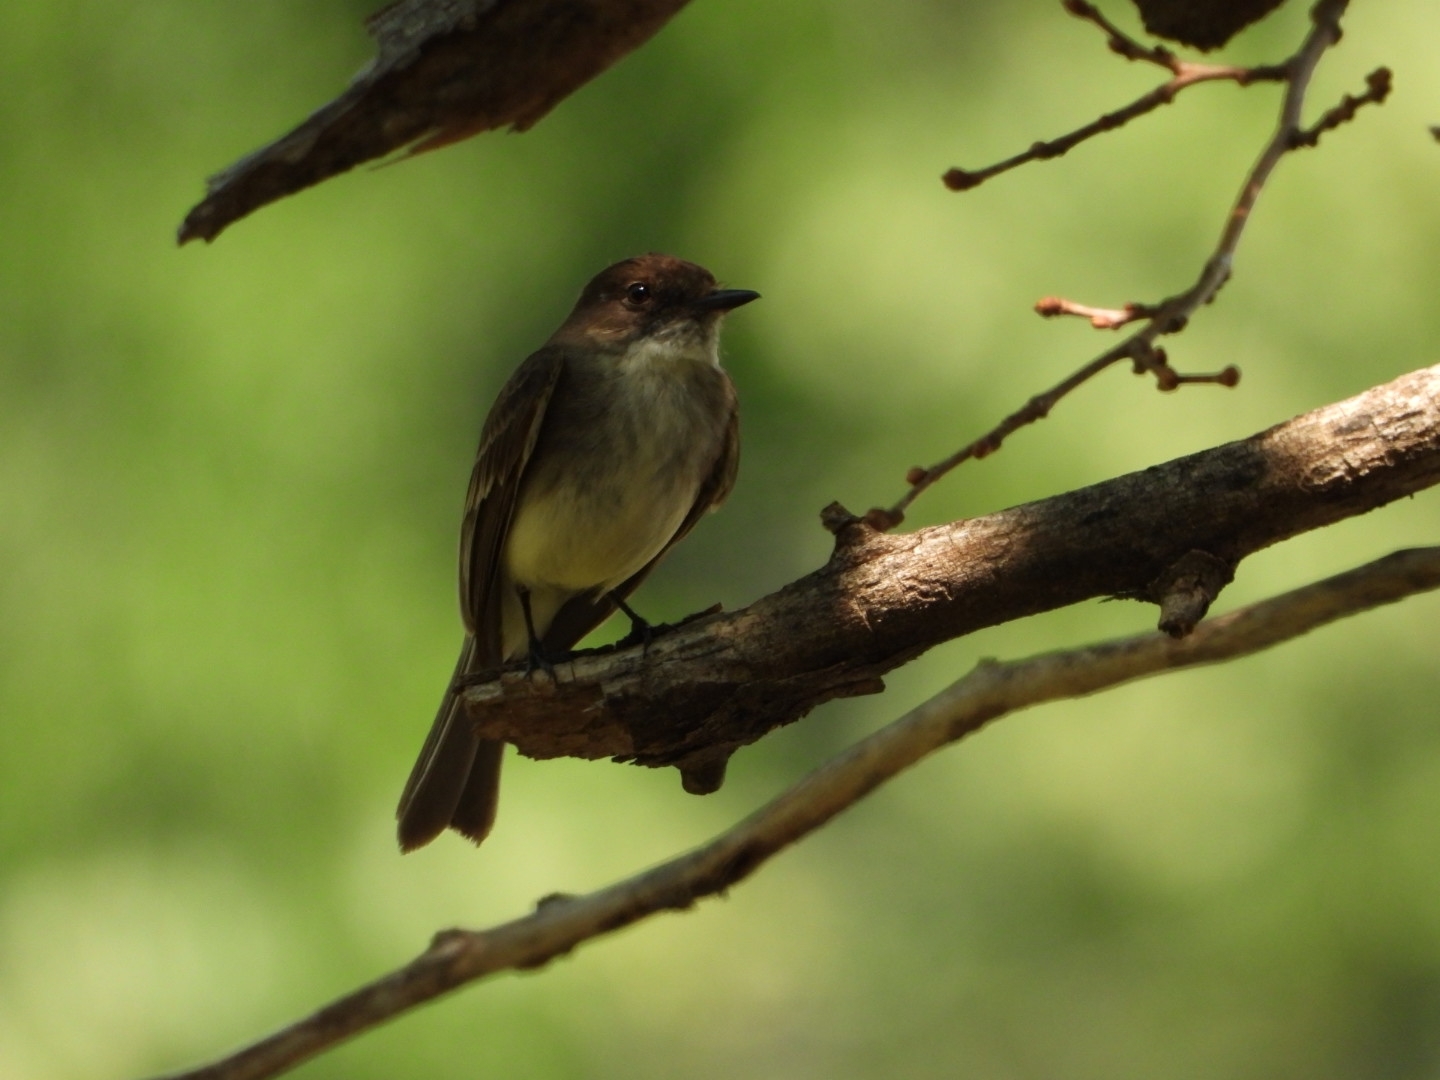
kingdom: Animalia
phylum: Chordata
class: Aves
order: Passeriformes
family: Tyrannidae
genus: Sayornis
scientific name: Sayornis phoebe
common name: Eastern phoebe
